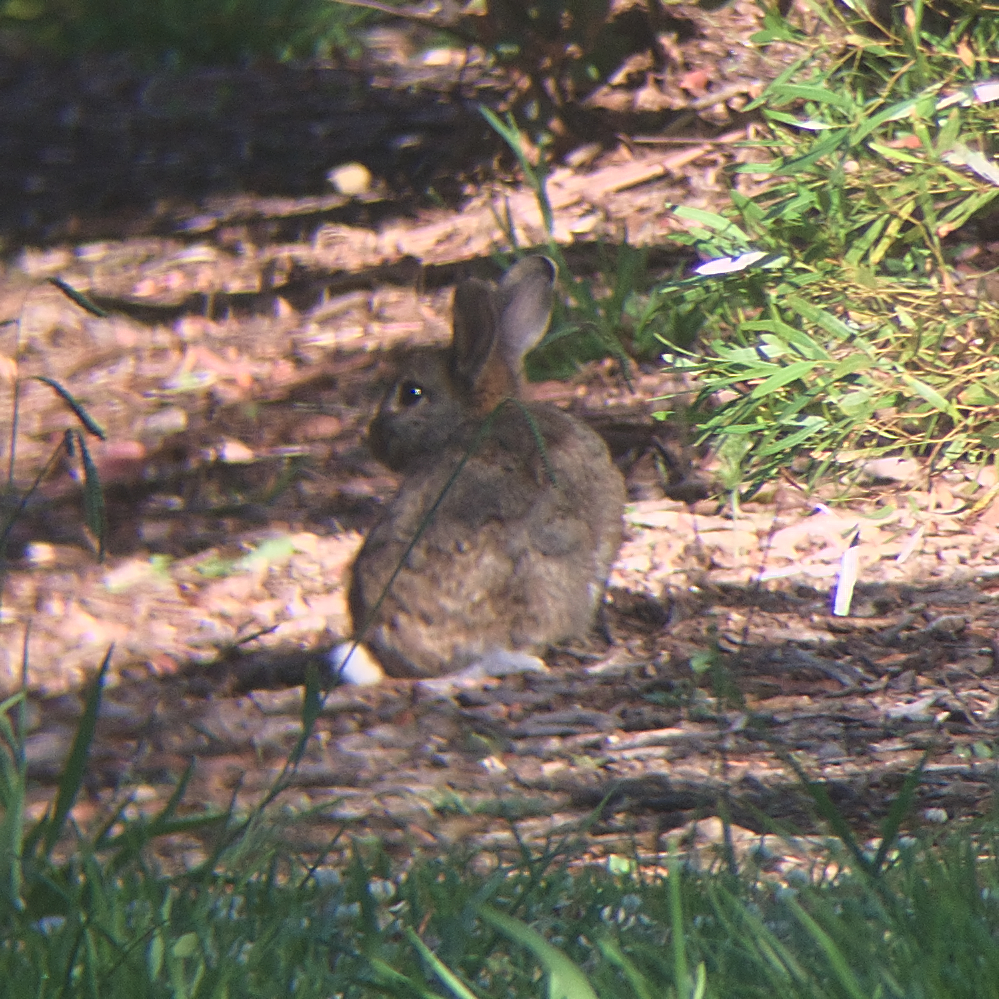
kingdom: Animalia
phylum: Chordata
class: Mammalia
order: Lagomorpha
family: Leporidae
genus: Oryctolagus
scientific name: Oryctolagus cuniculus
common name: European rabbit
